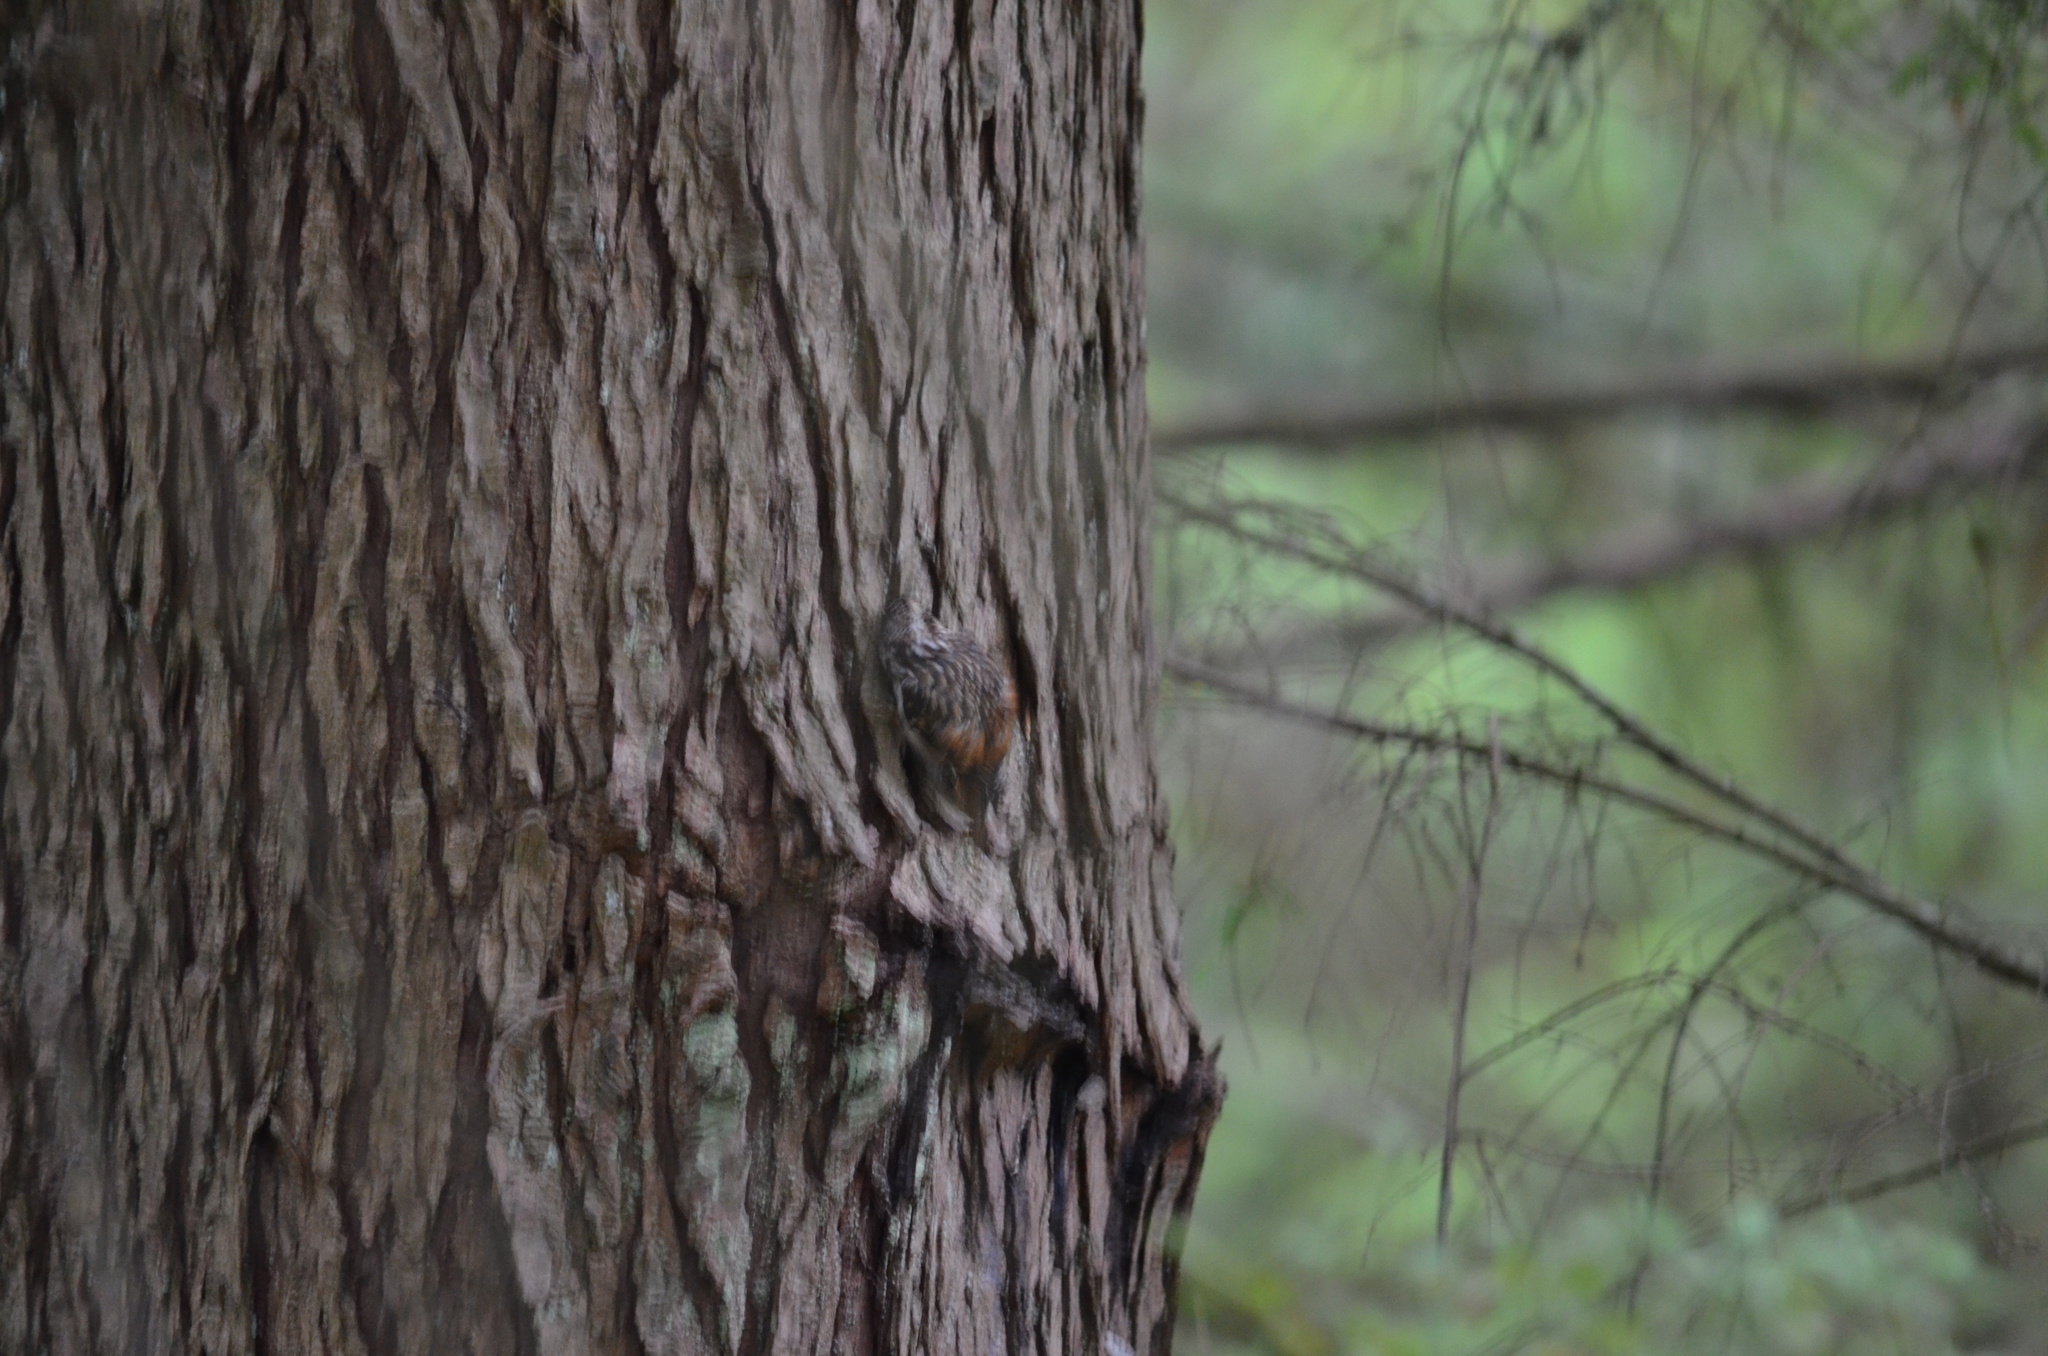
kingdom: Animalia
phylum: Chordata
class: Aves
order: Passeriformes
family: Certhiidae
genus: Certhia
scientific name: Certhia americana
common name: Brown creeper
